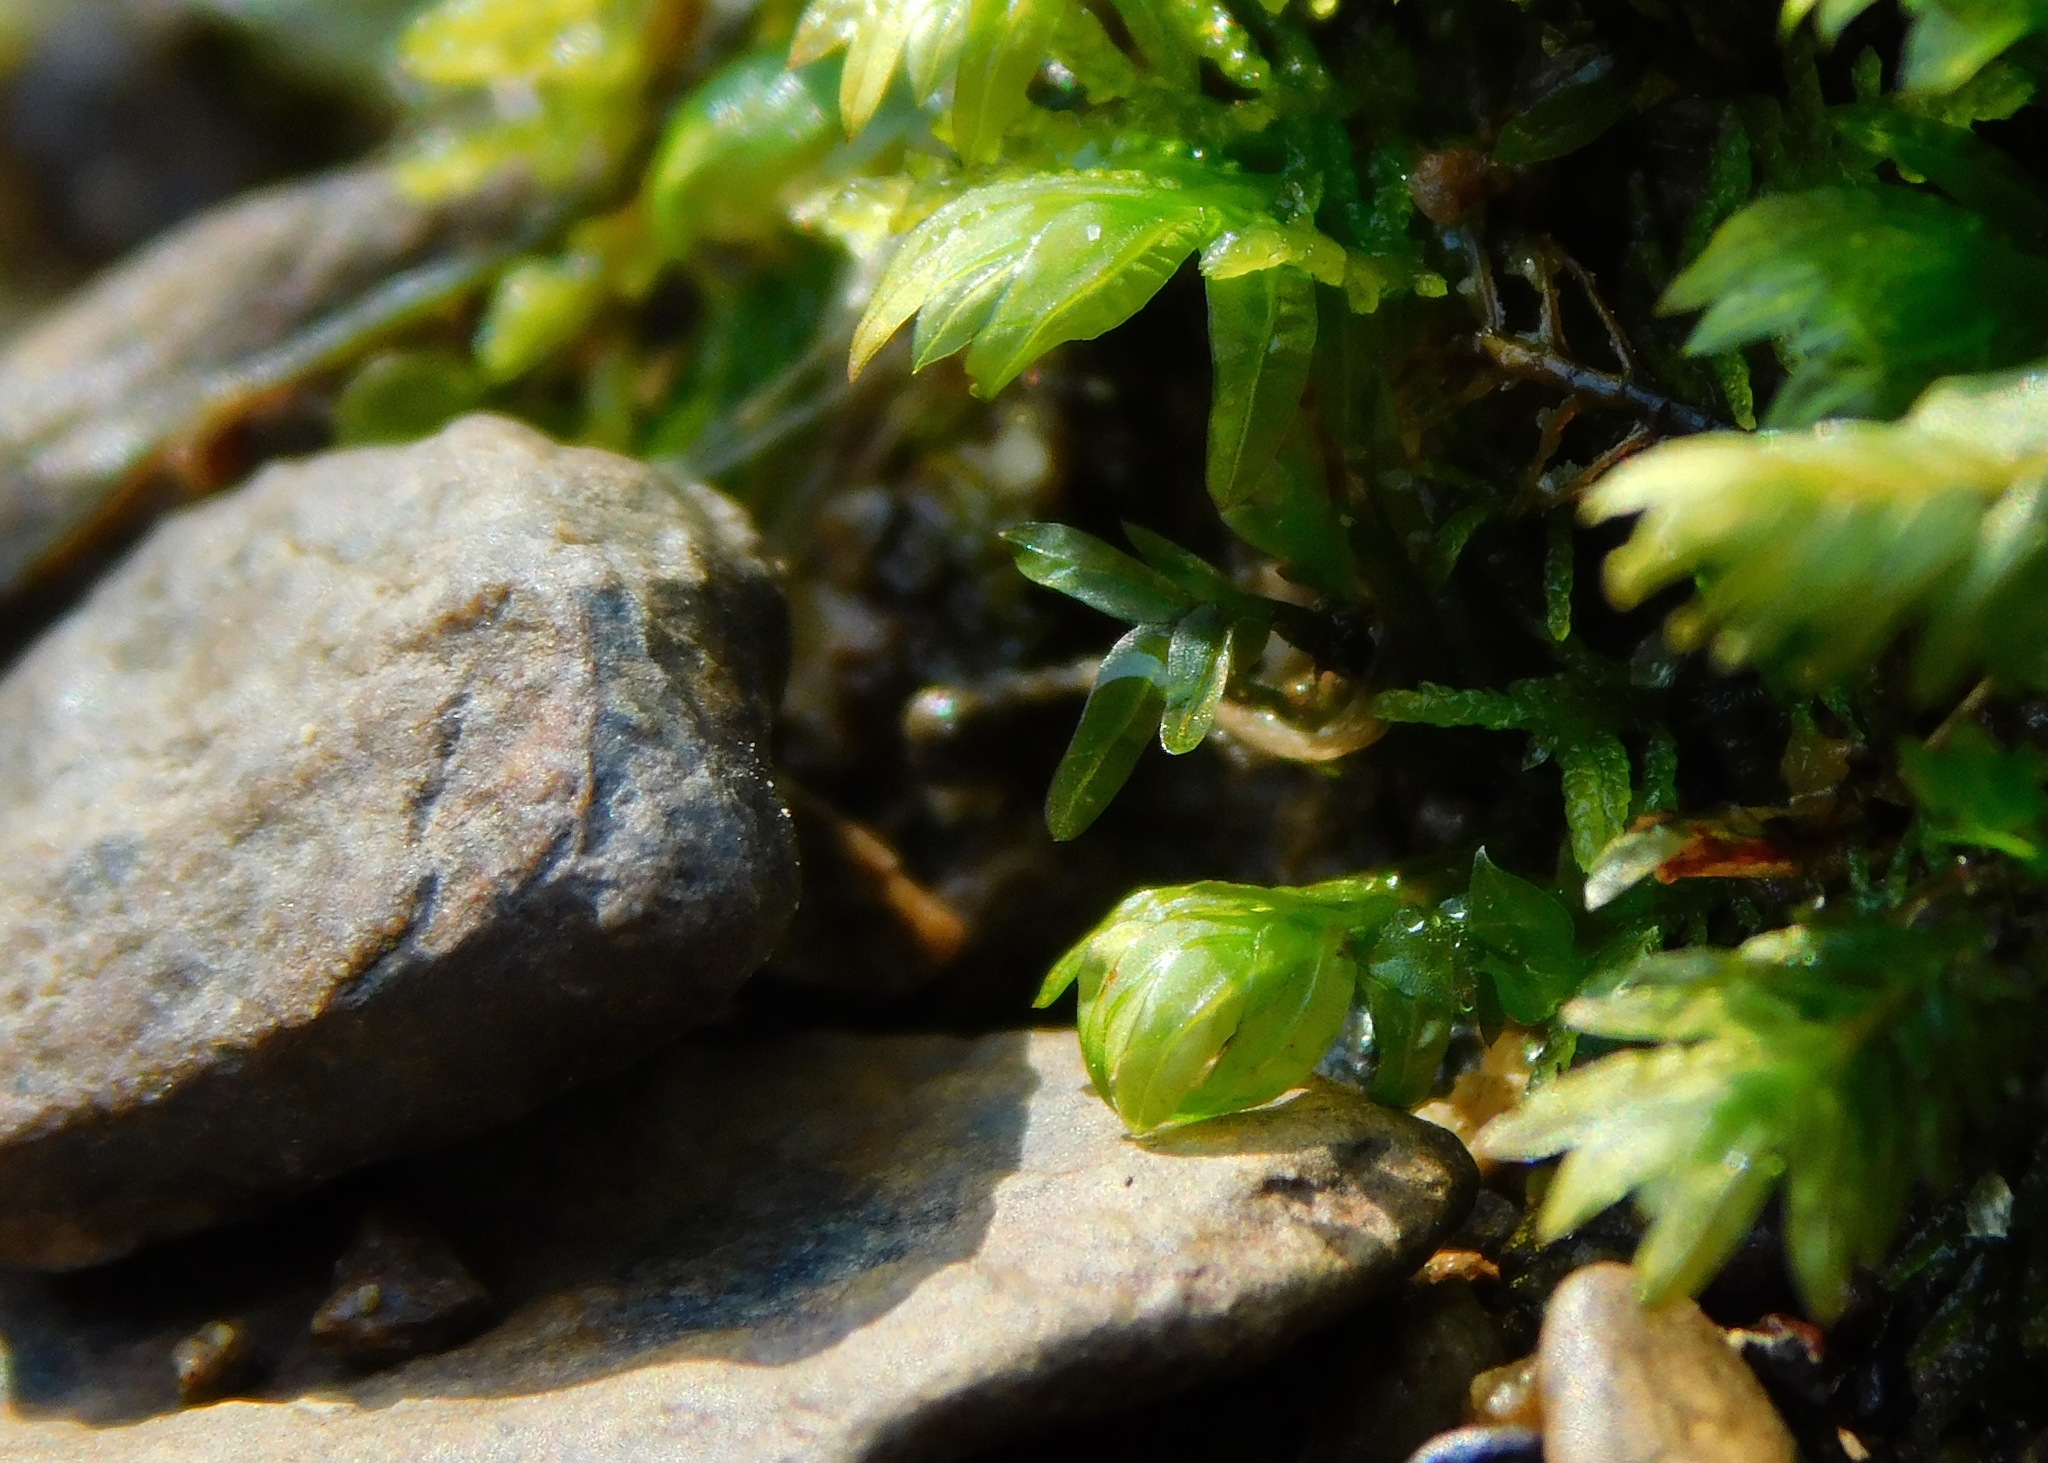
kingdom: Plantae
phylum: Bryophyta
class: Bryopsida
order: Dicranales
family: Fissidentaceae
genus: Fissidens
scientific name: Fissidens bryoides
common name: Lesser pocket moss
